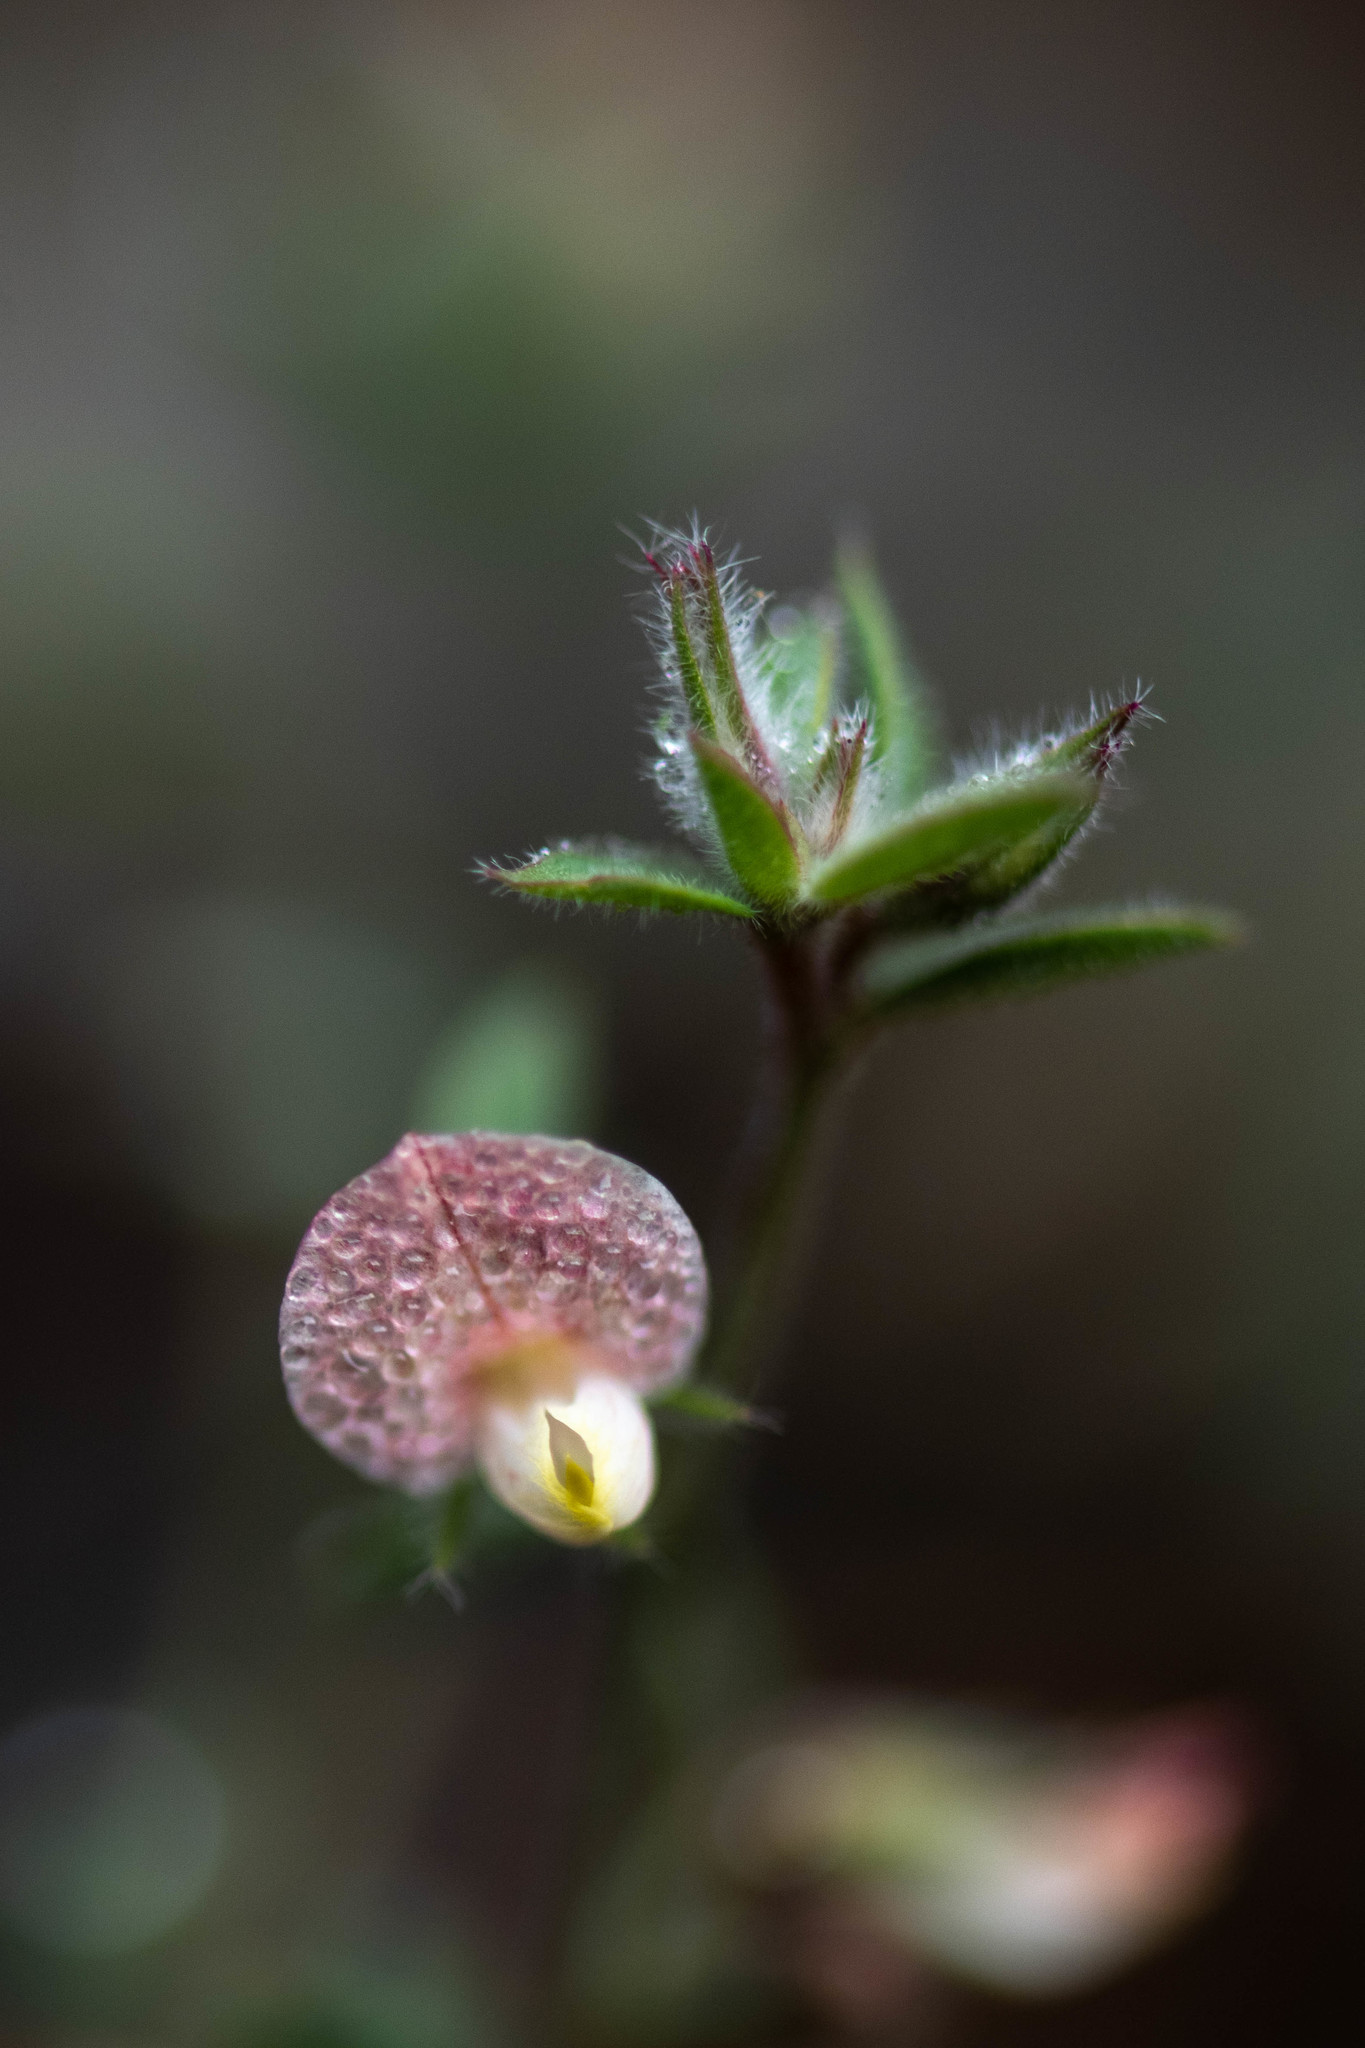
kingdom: Plantae
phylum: Tracheophyta
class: Magnoliopsida
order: Fabales
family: Fabaceae
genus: Acmispon
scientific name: Acmispon americanus
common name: American bird's-foot trefoil
